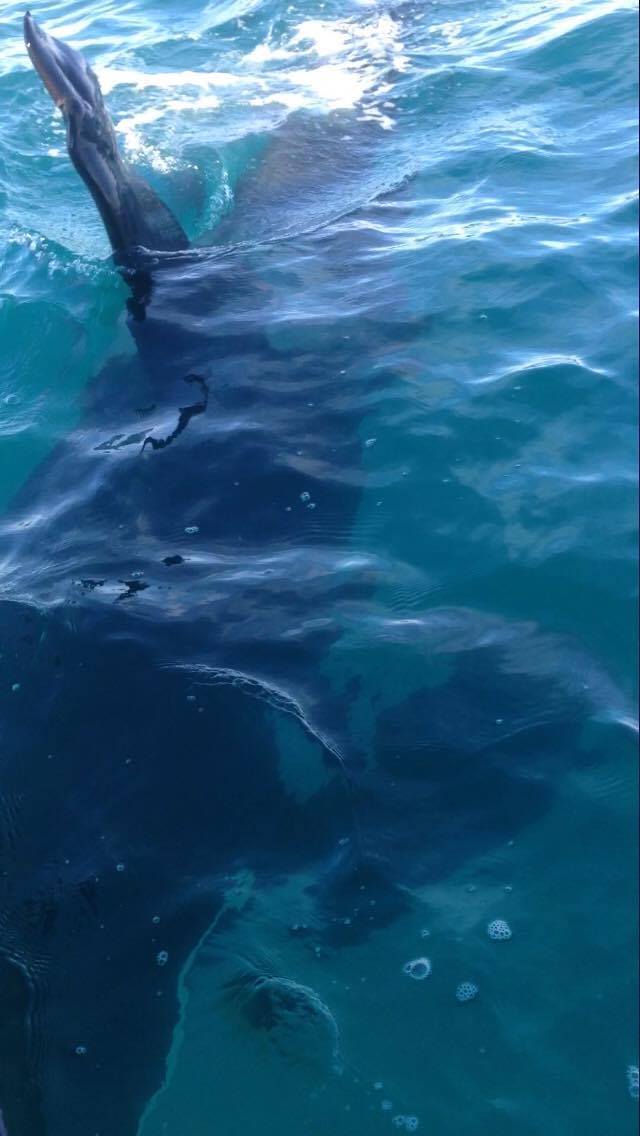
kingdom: Animalia
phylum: Chordata
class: Mammalia
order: Cetacea
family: Delphinidae
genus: Orcinus
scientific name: Orcinus orca
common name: Killer whale
